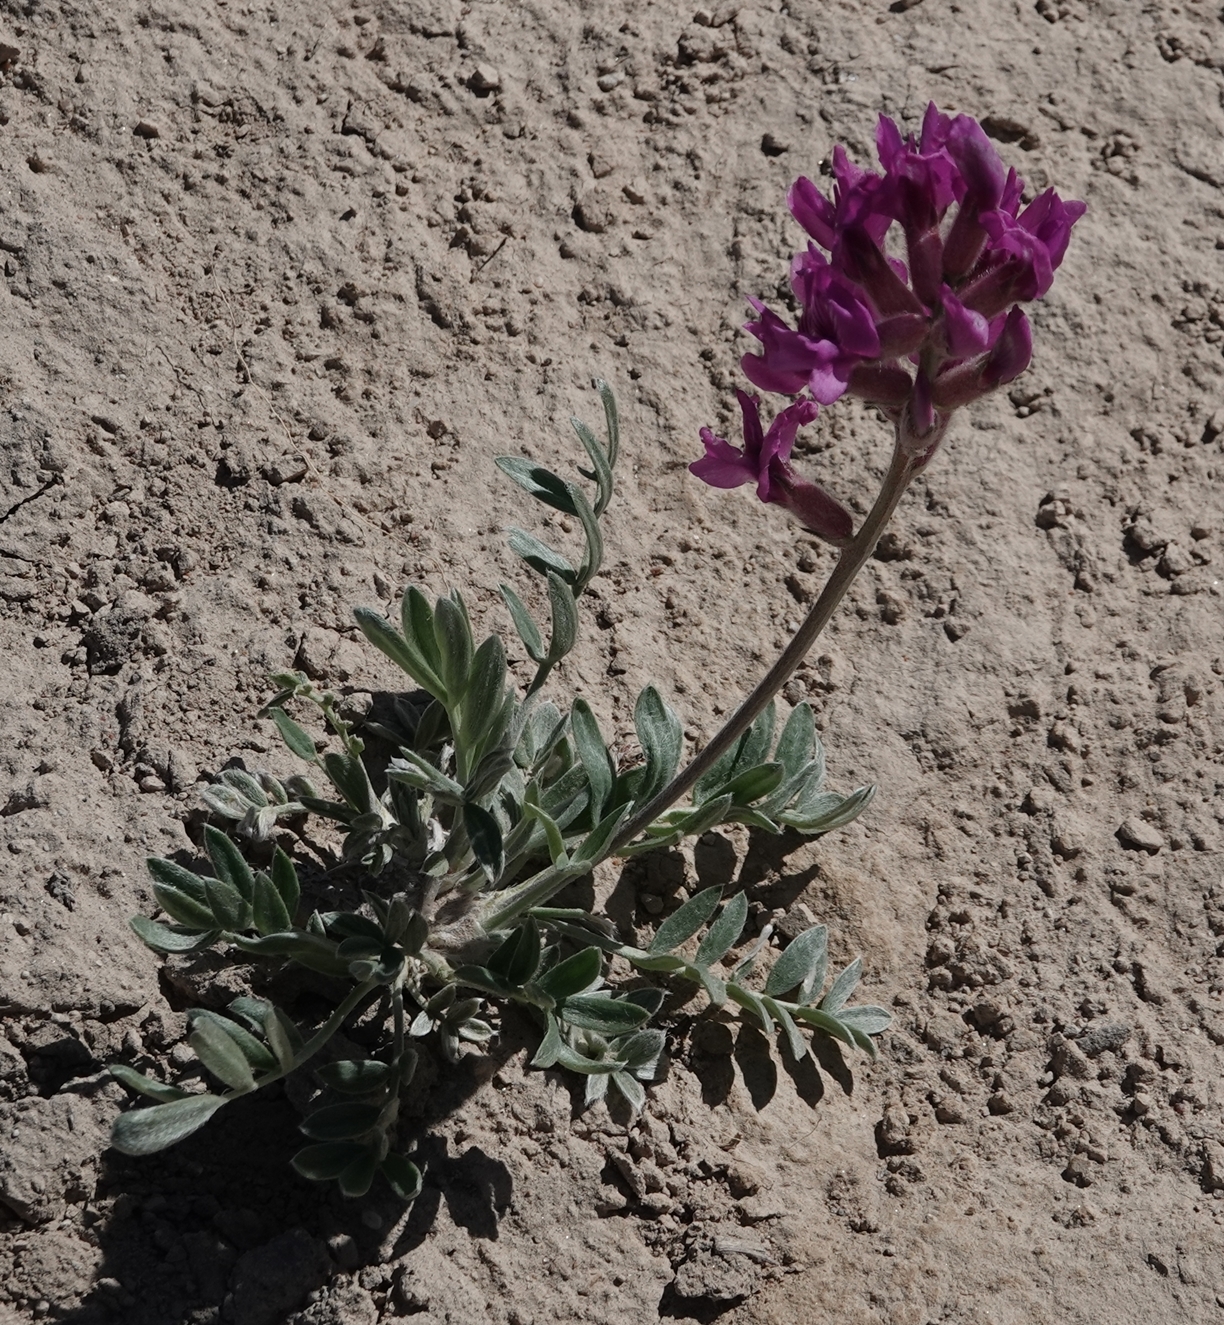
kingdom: Plantae
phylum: Tracheophyta
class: Magnoliopsida
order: Fabales
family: Fabaceae
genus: Oxytropis
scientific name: Oxytropis lambertii
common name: Purple locoweed
